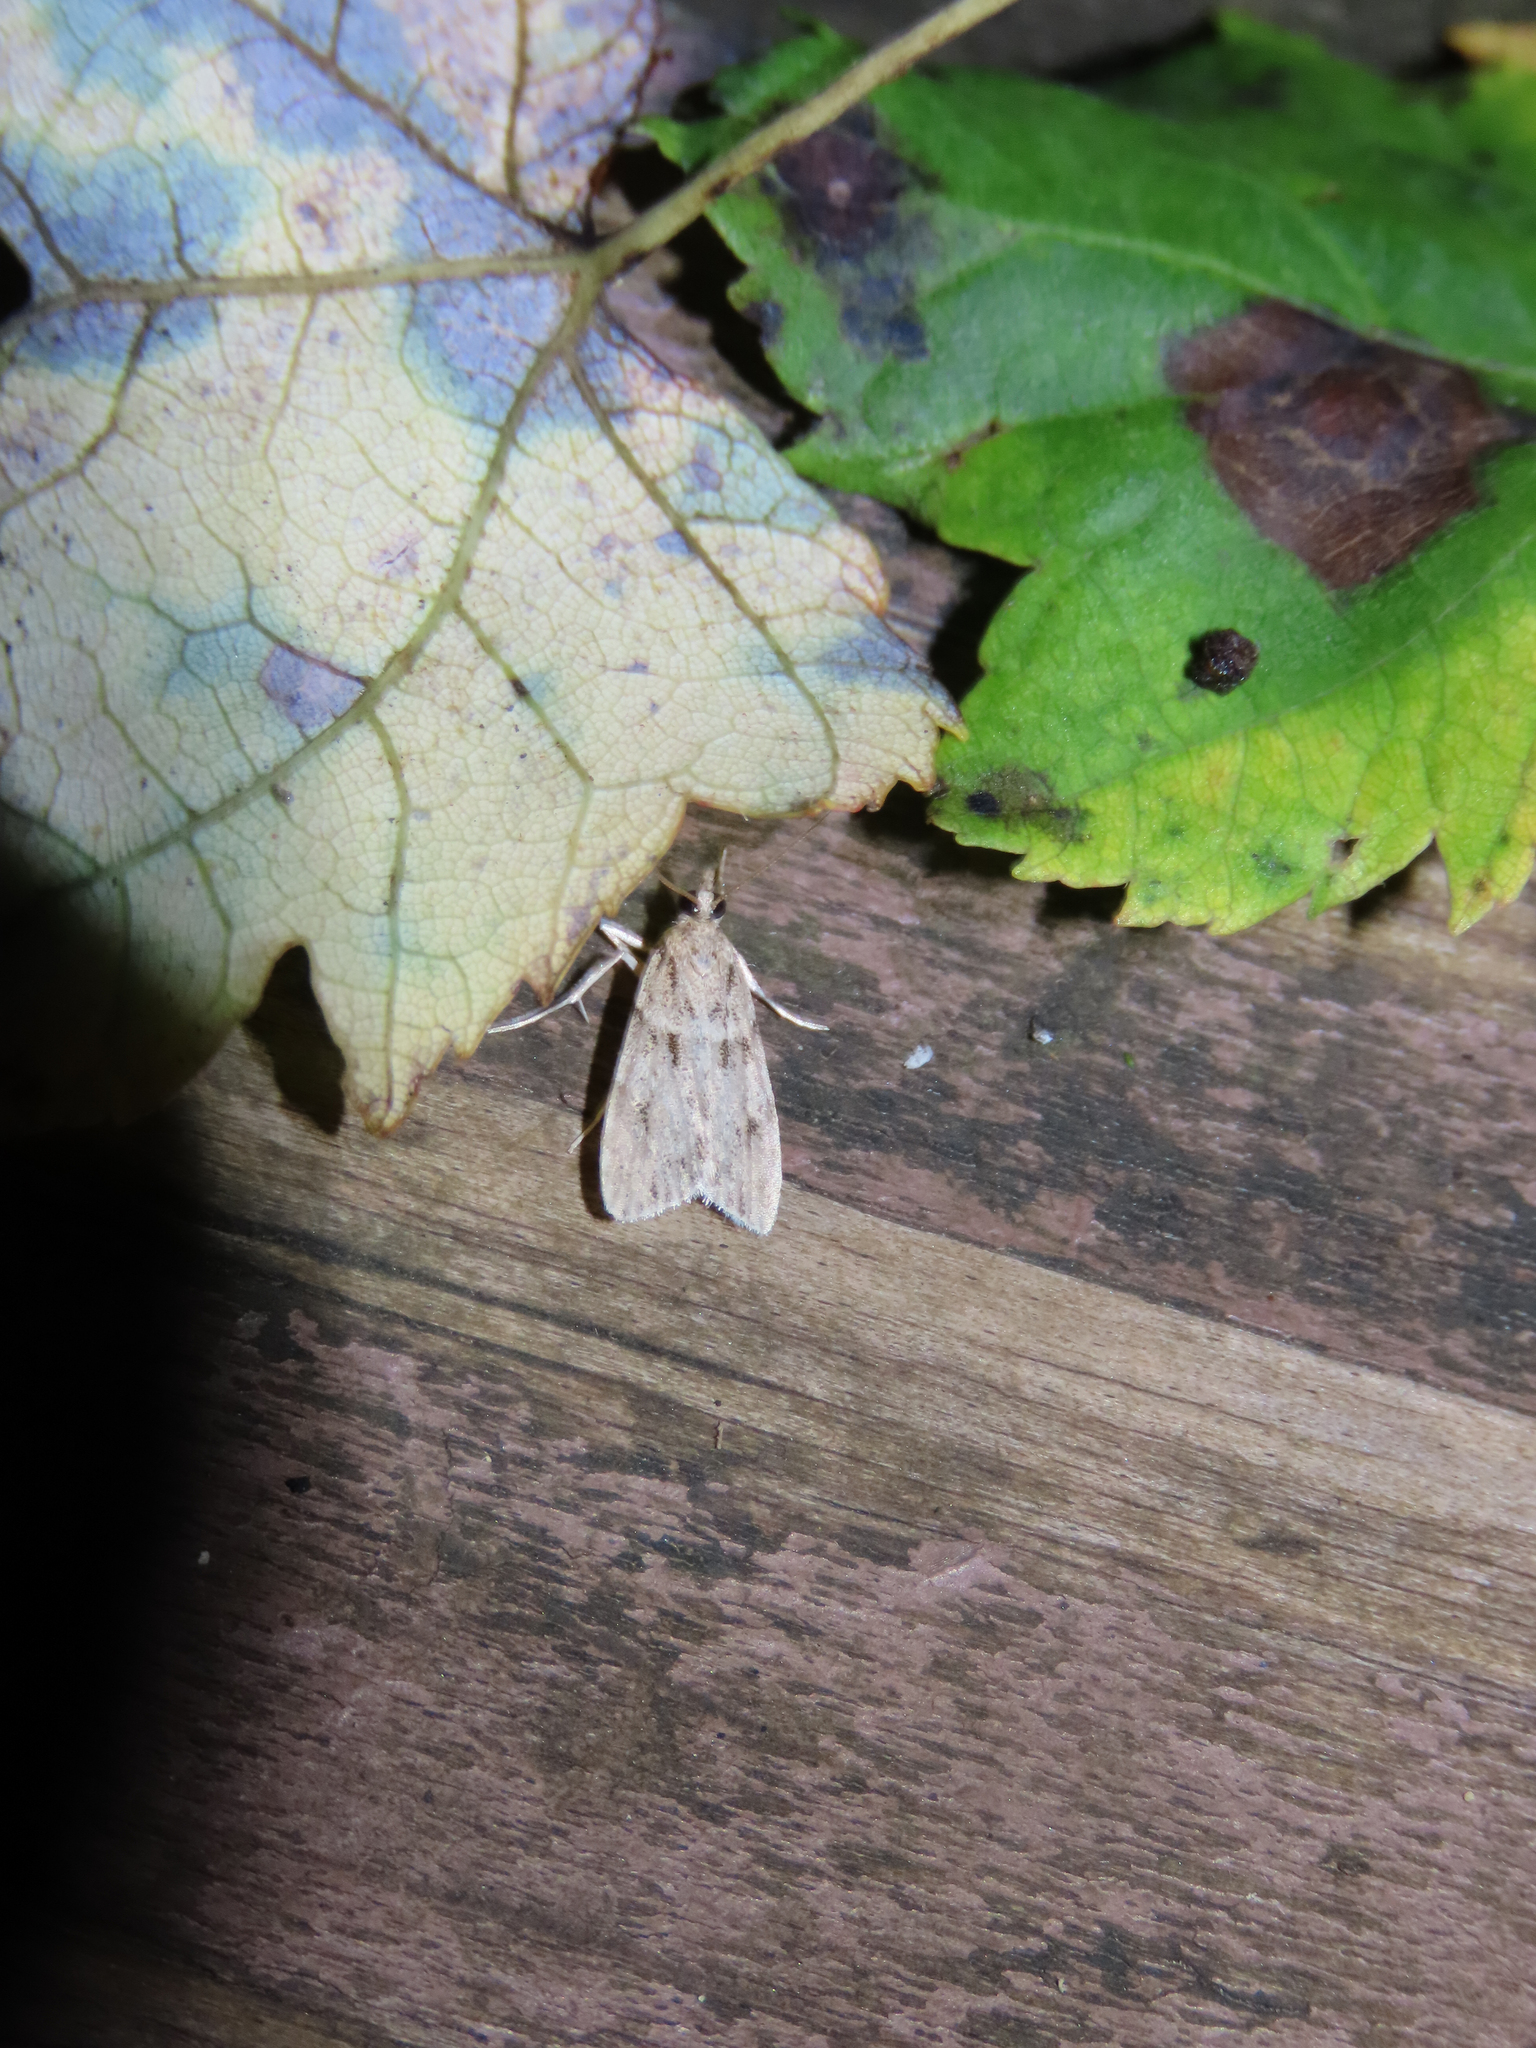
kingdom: Animalia
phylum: Arthropoda
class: Insecta
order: Lepidoptera
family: Crambidae
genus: Scoparia
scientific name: Scoparia biplagialis
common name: Double-striped scoparia moth
